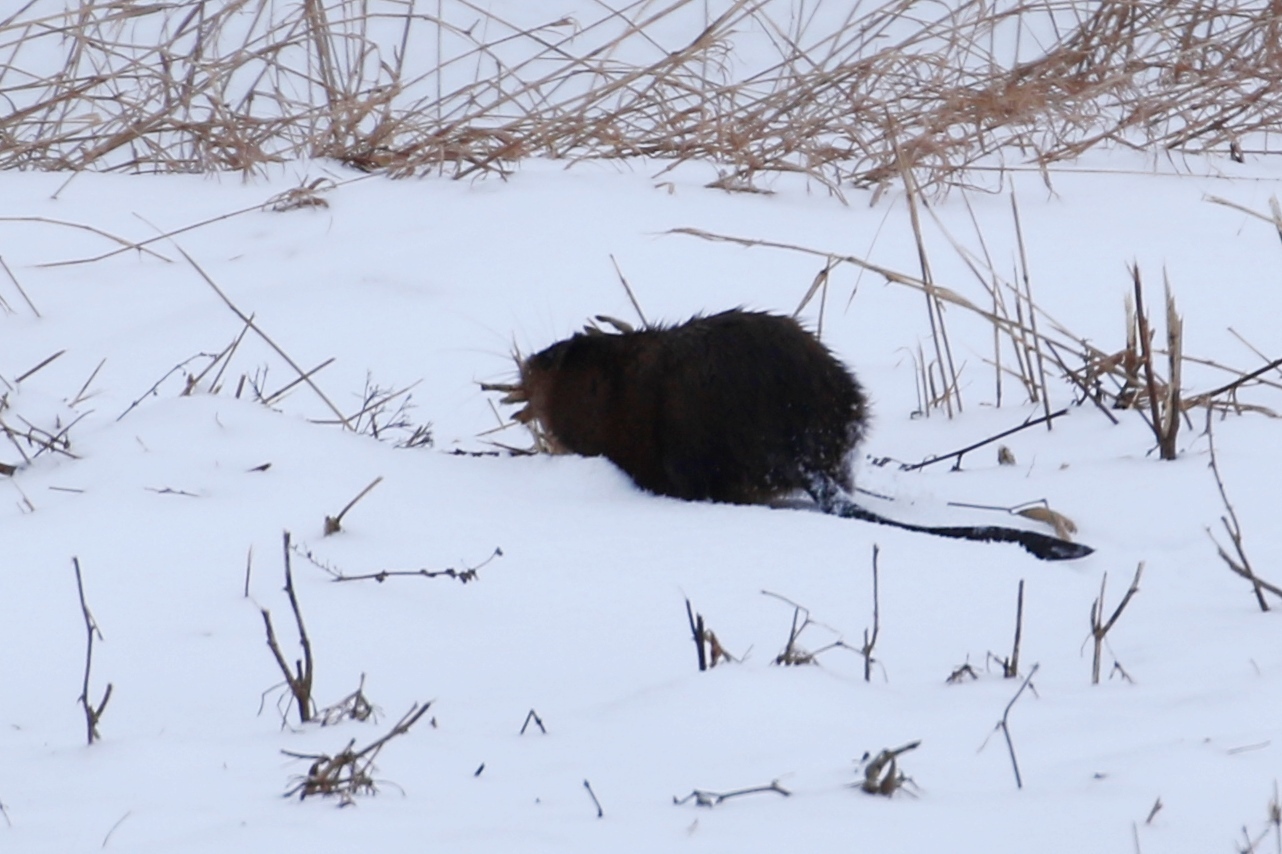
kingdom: Animalia
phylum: Chordata
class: Mammalia
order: Rodentia
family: Cricetidae
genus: Ondatra
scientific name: Ondatra zibethicus
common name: Muskrat
